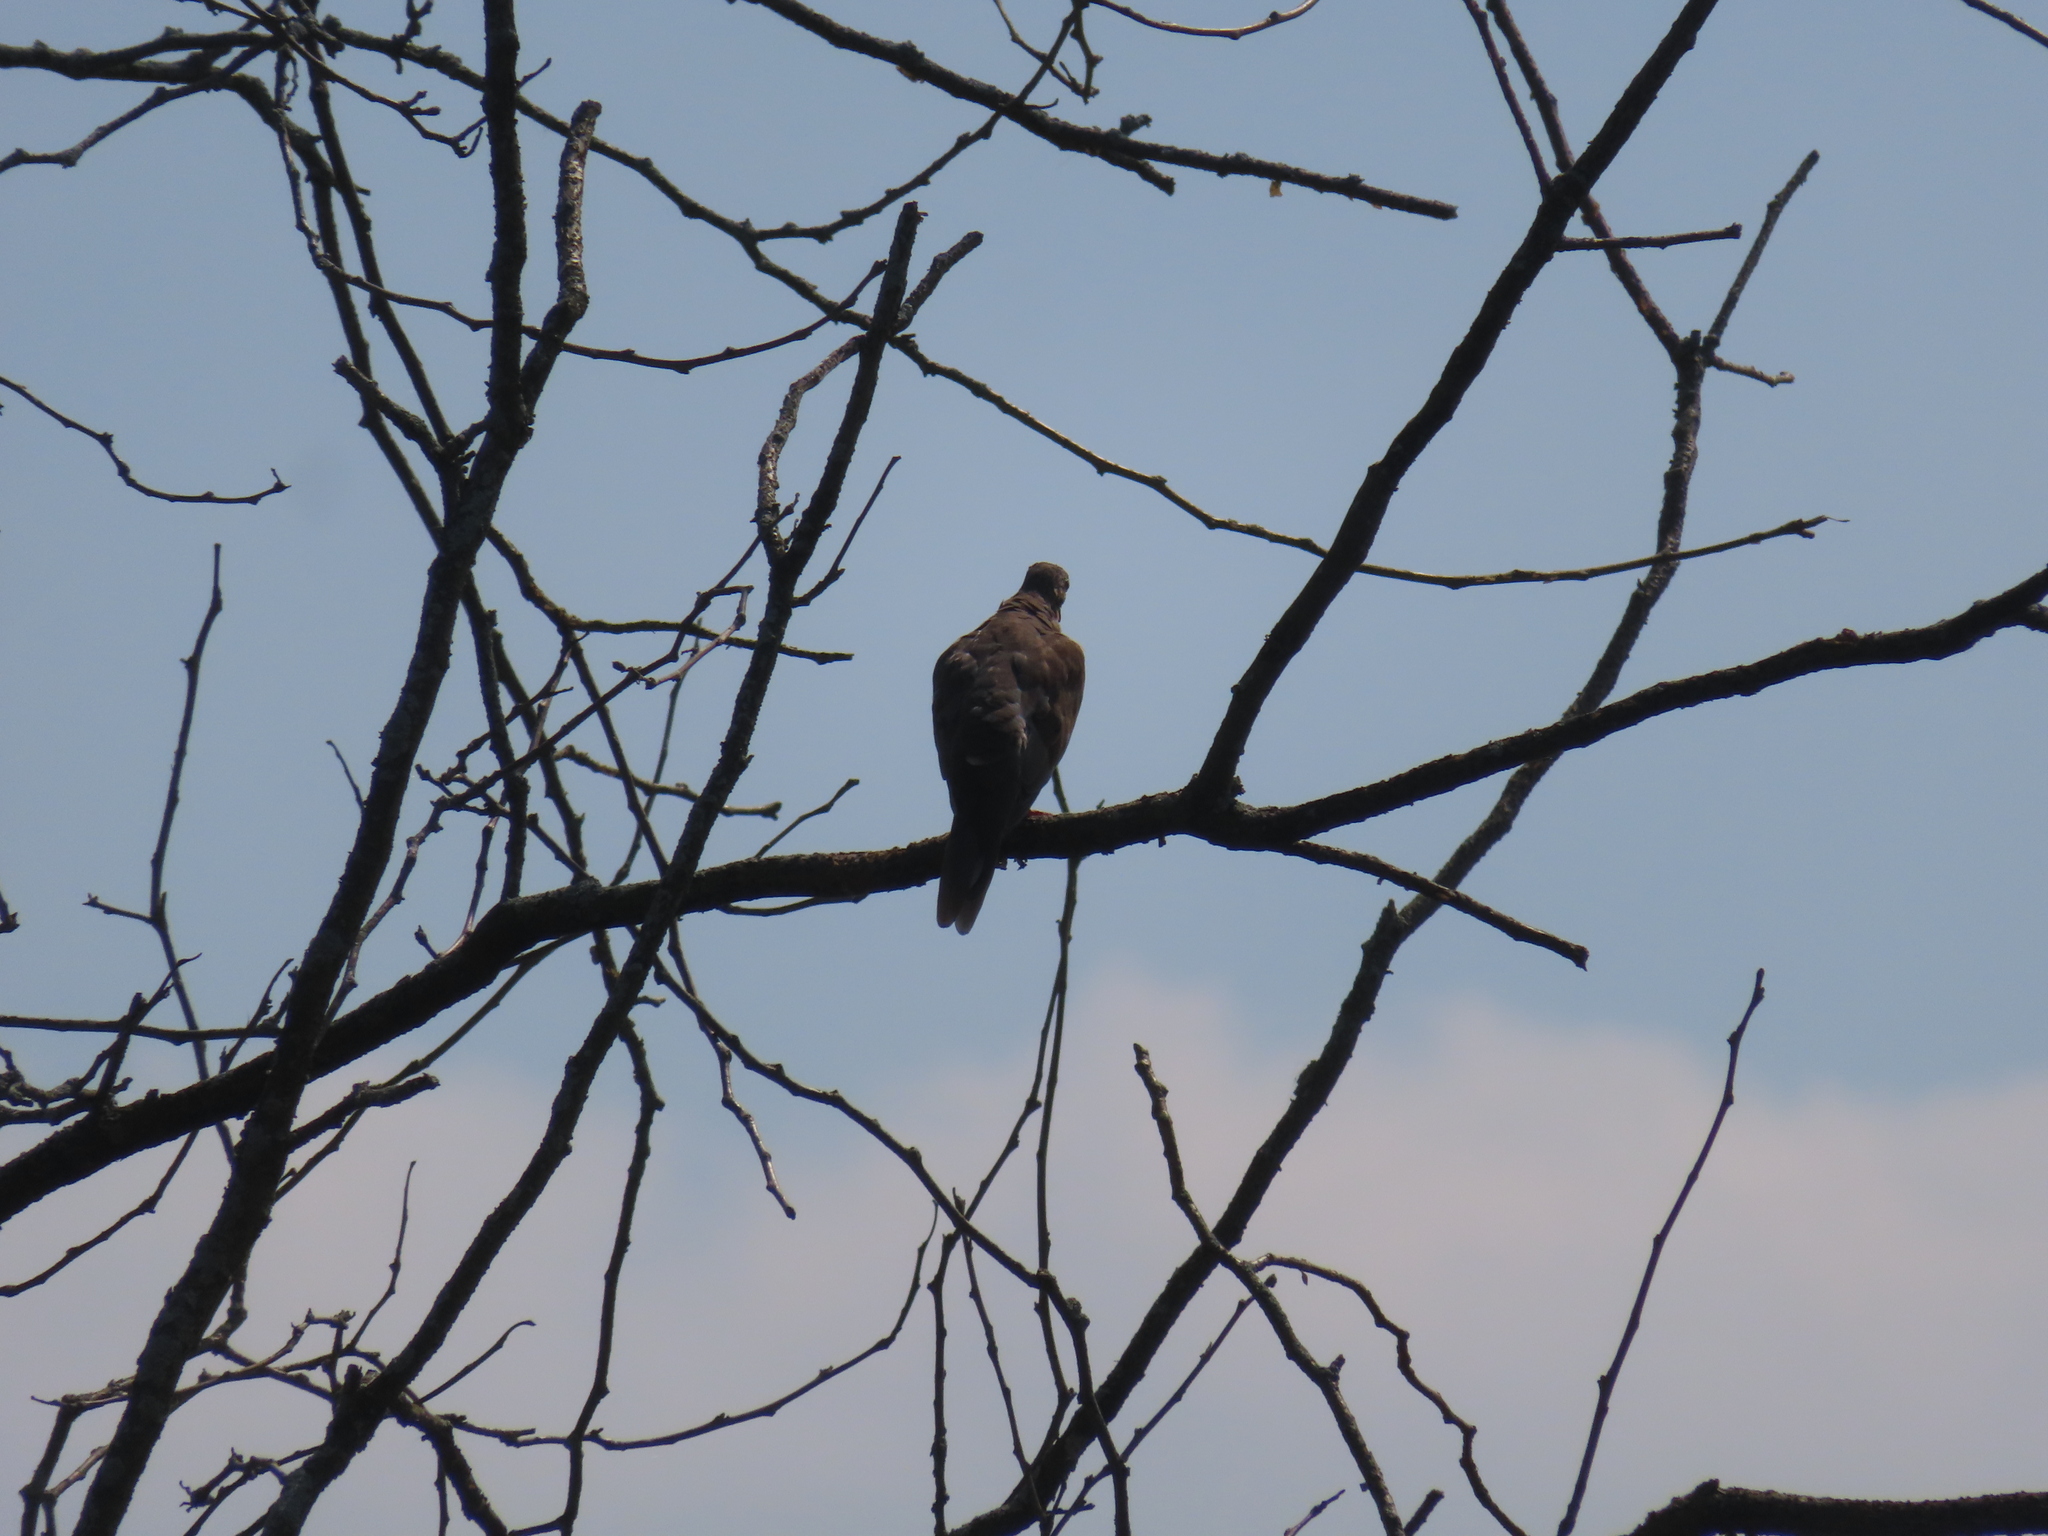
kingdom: Animalia
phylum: Chordata
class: Aves
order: Columbiformes
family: Columbidae
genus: Zenaida
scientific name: Zenaida macroura
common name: Mourning dove
